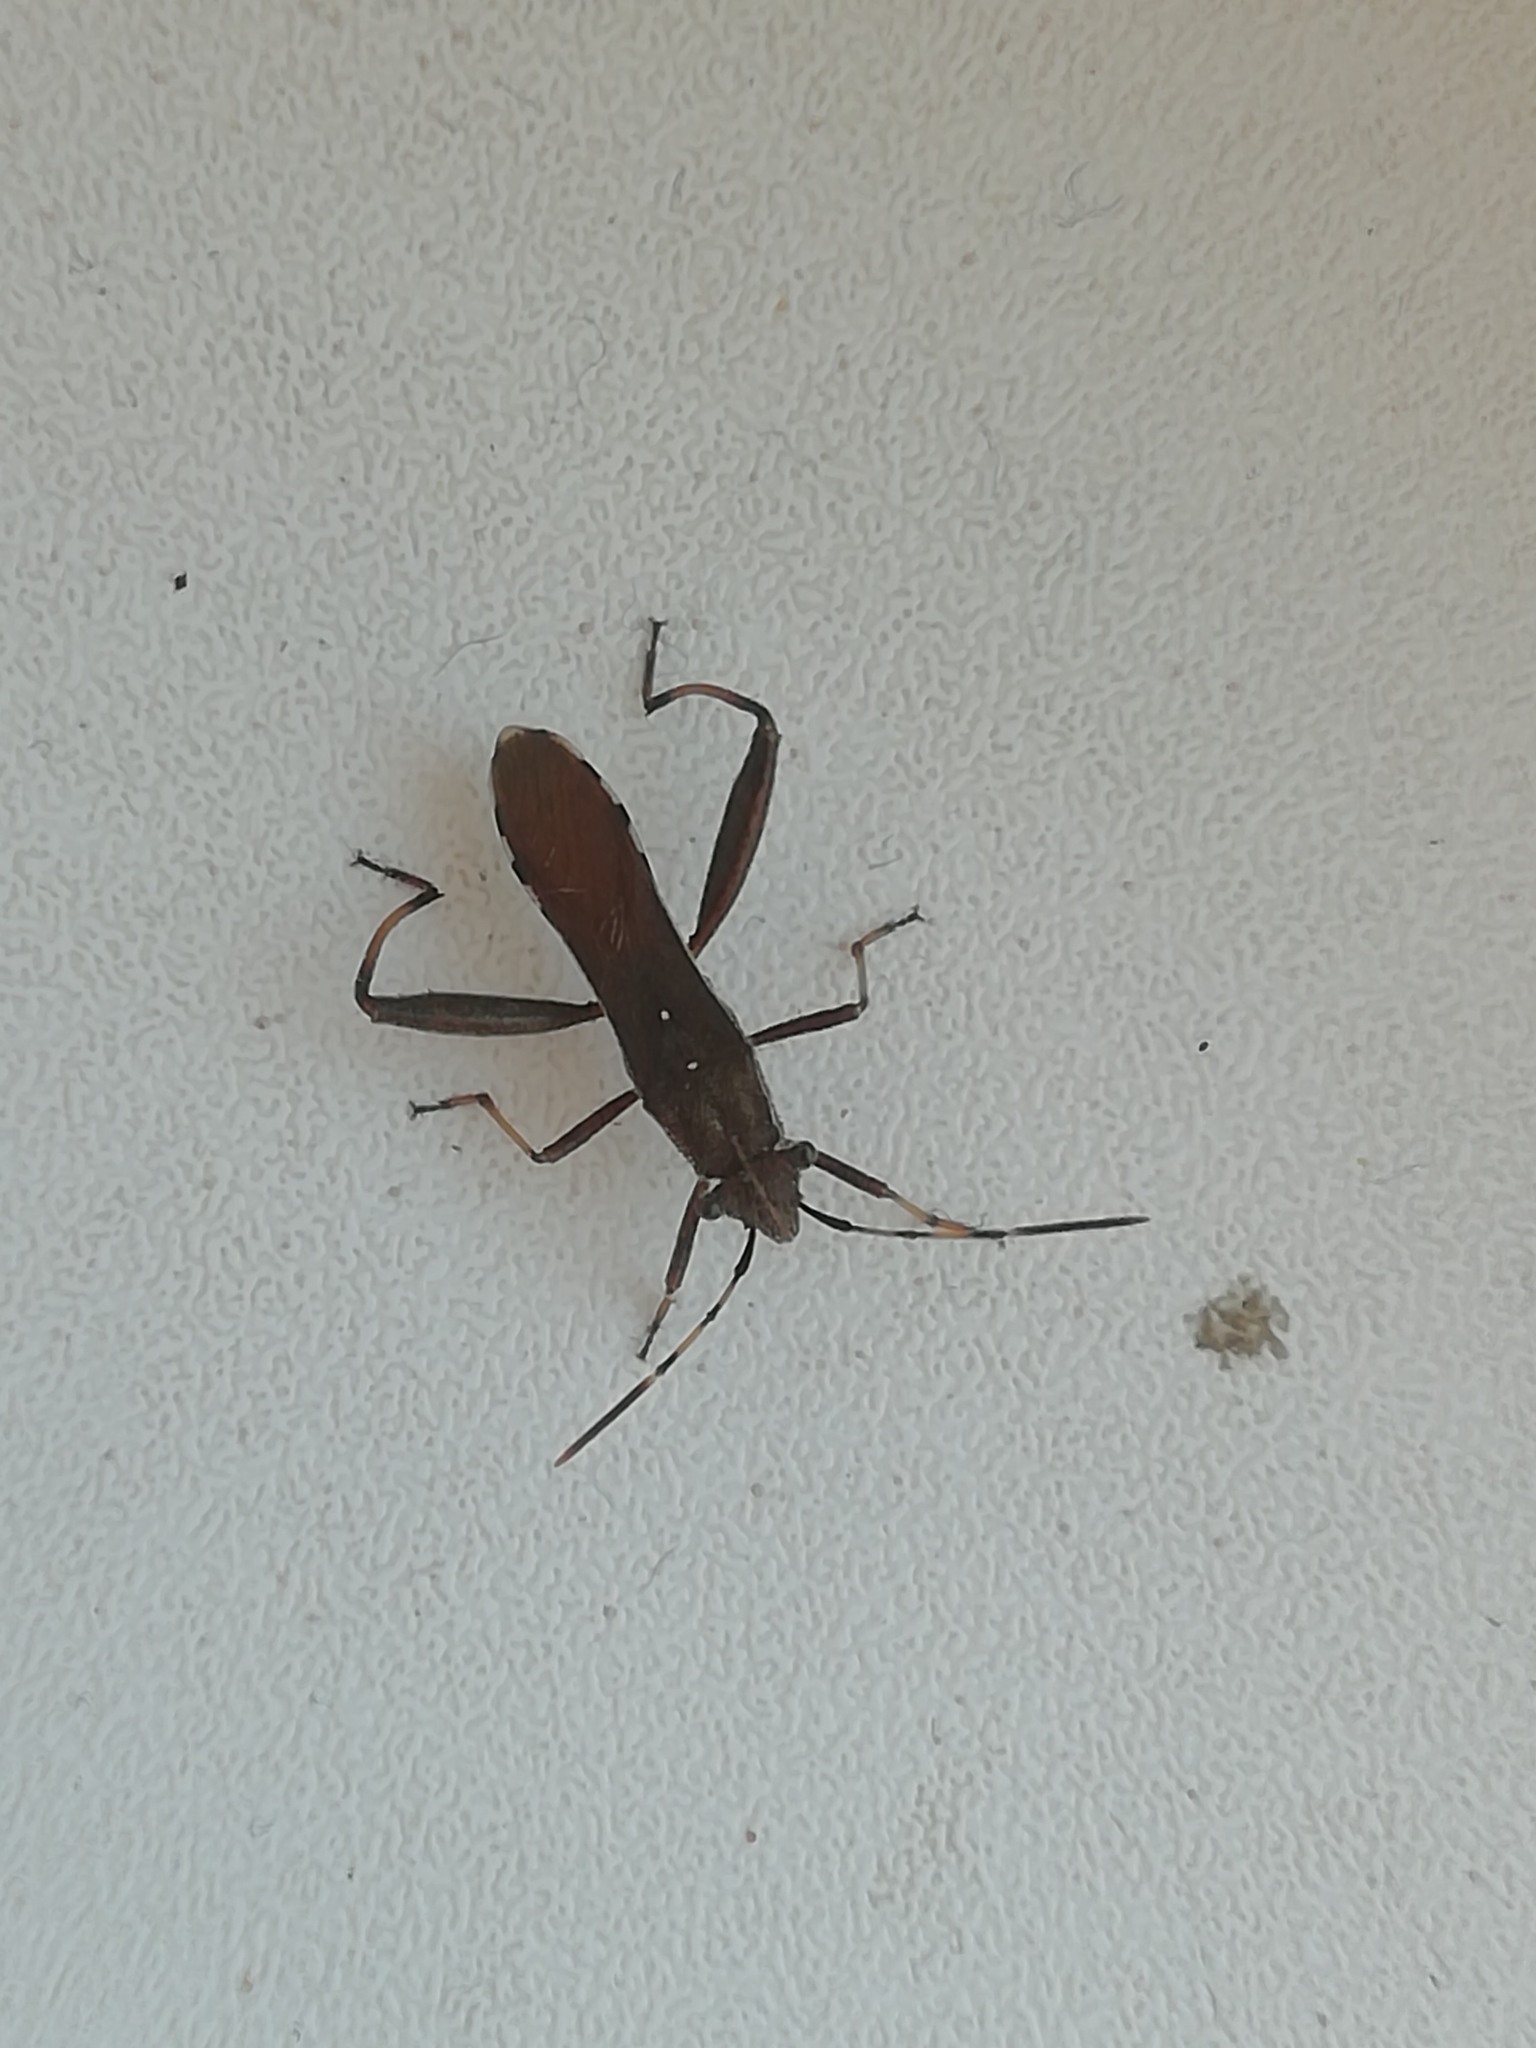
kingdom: Animalia
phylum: Arthropoda
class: Insecta
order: Hemiptera
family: Alydidae
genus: Camptopus
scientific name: Camptopus lateralis
